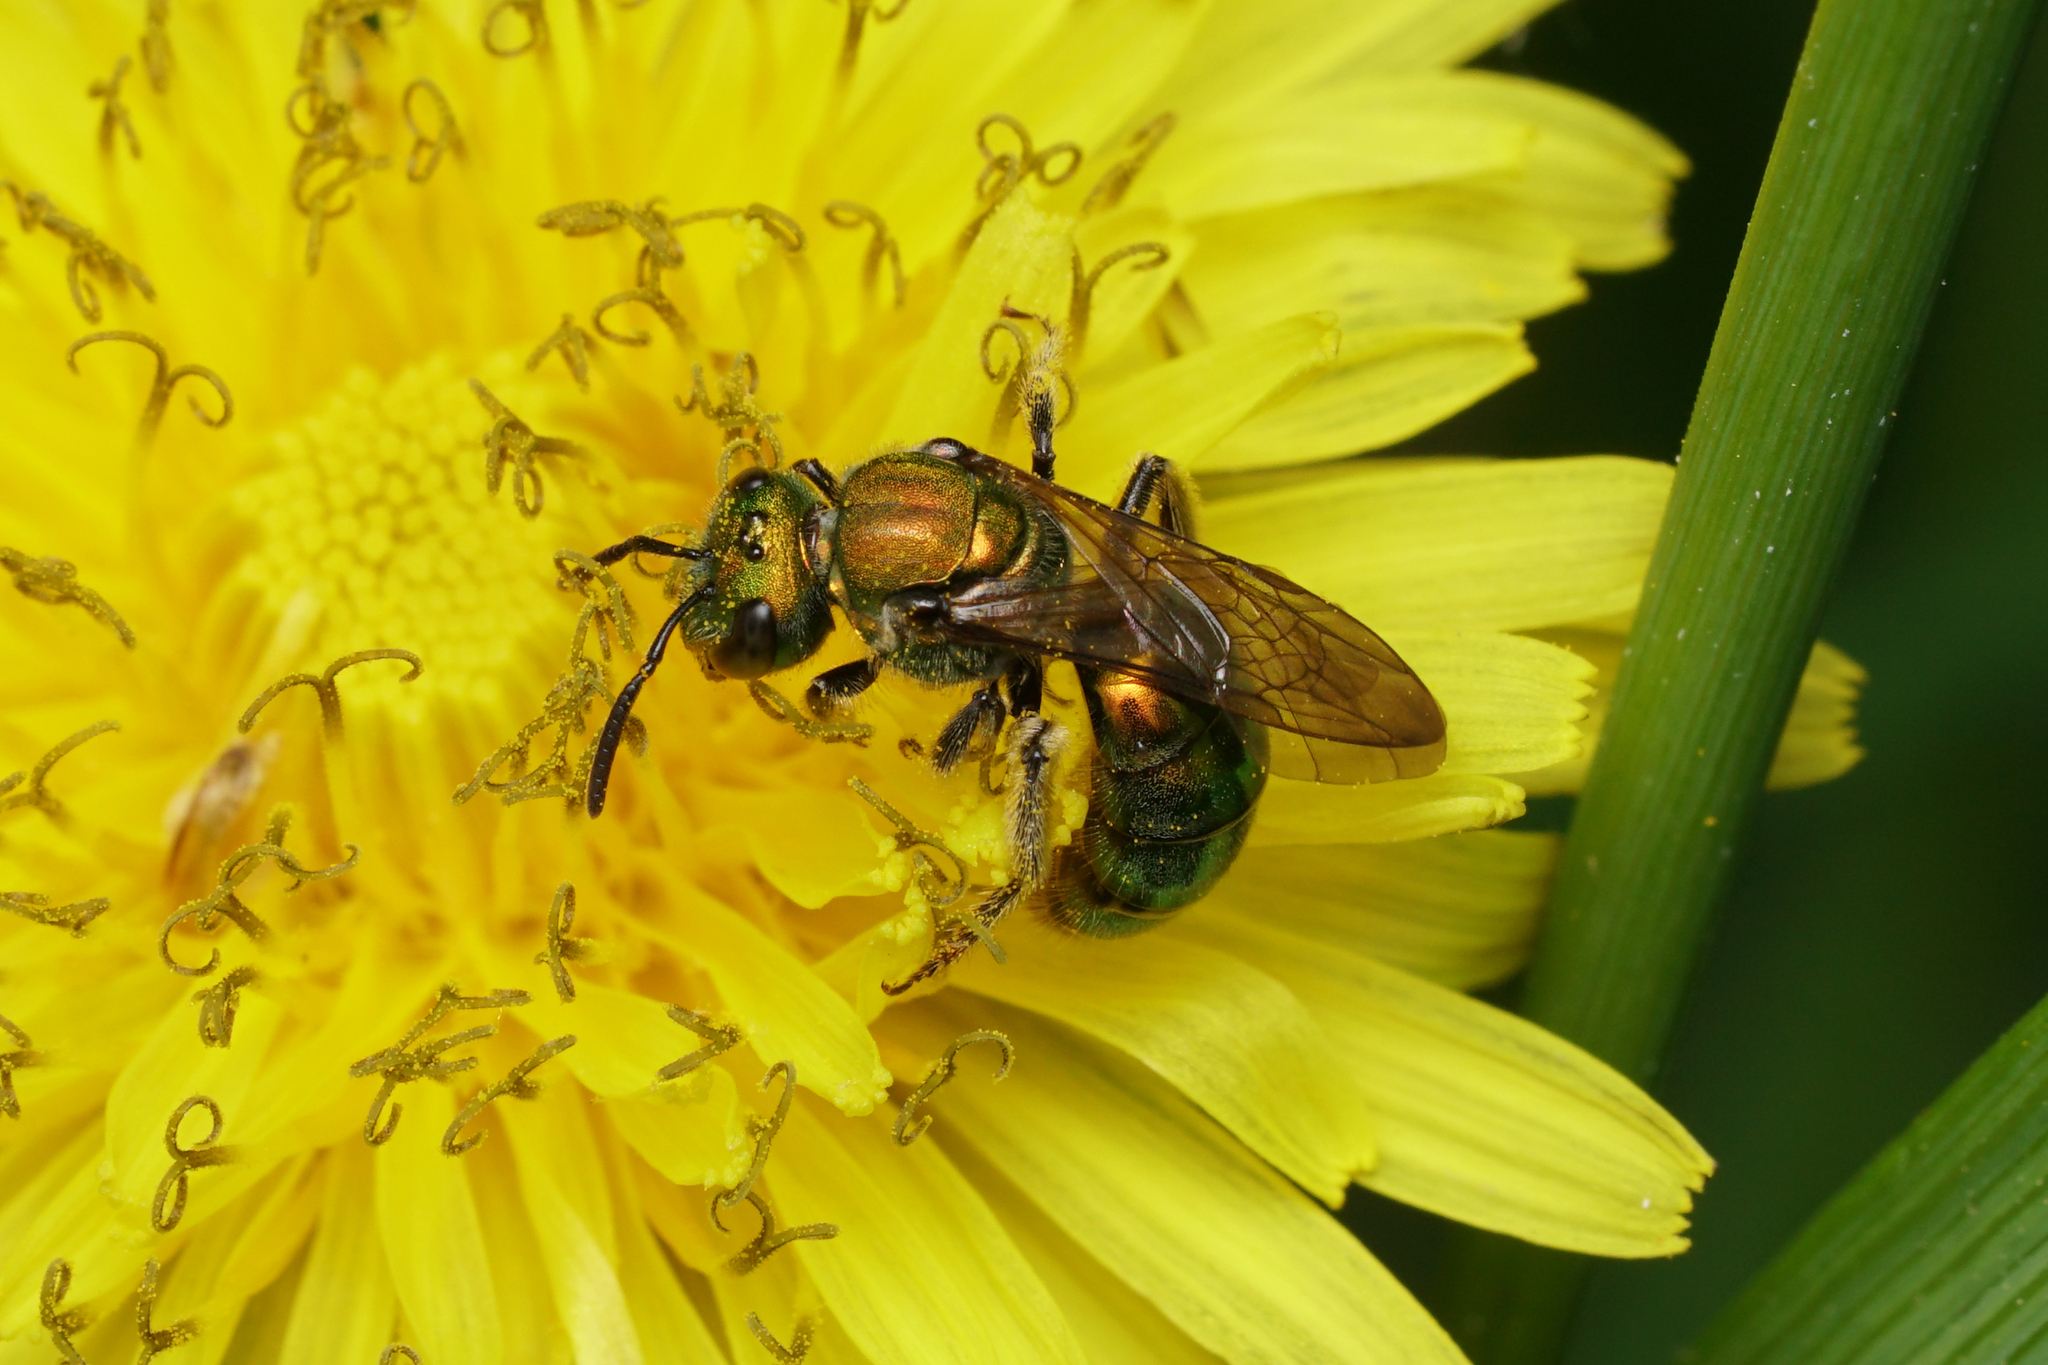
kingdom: Animalia
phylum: Arthropoda
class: Insecta
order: Hymenoptera
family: Halictidae
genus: Augochlora
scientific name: Augochlora pura
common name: Pure green sweat bee
